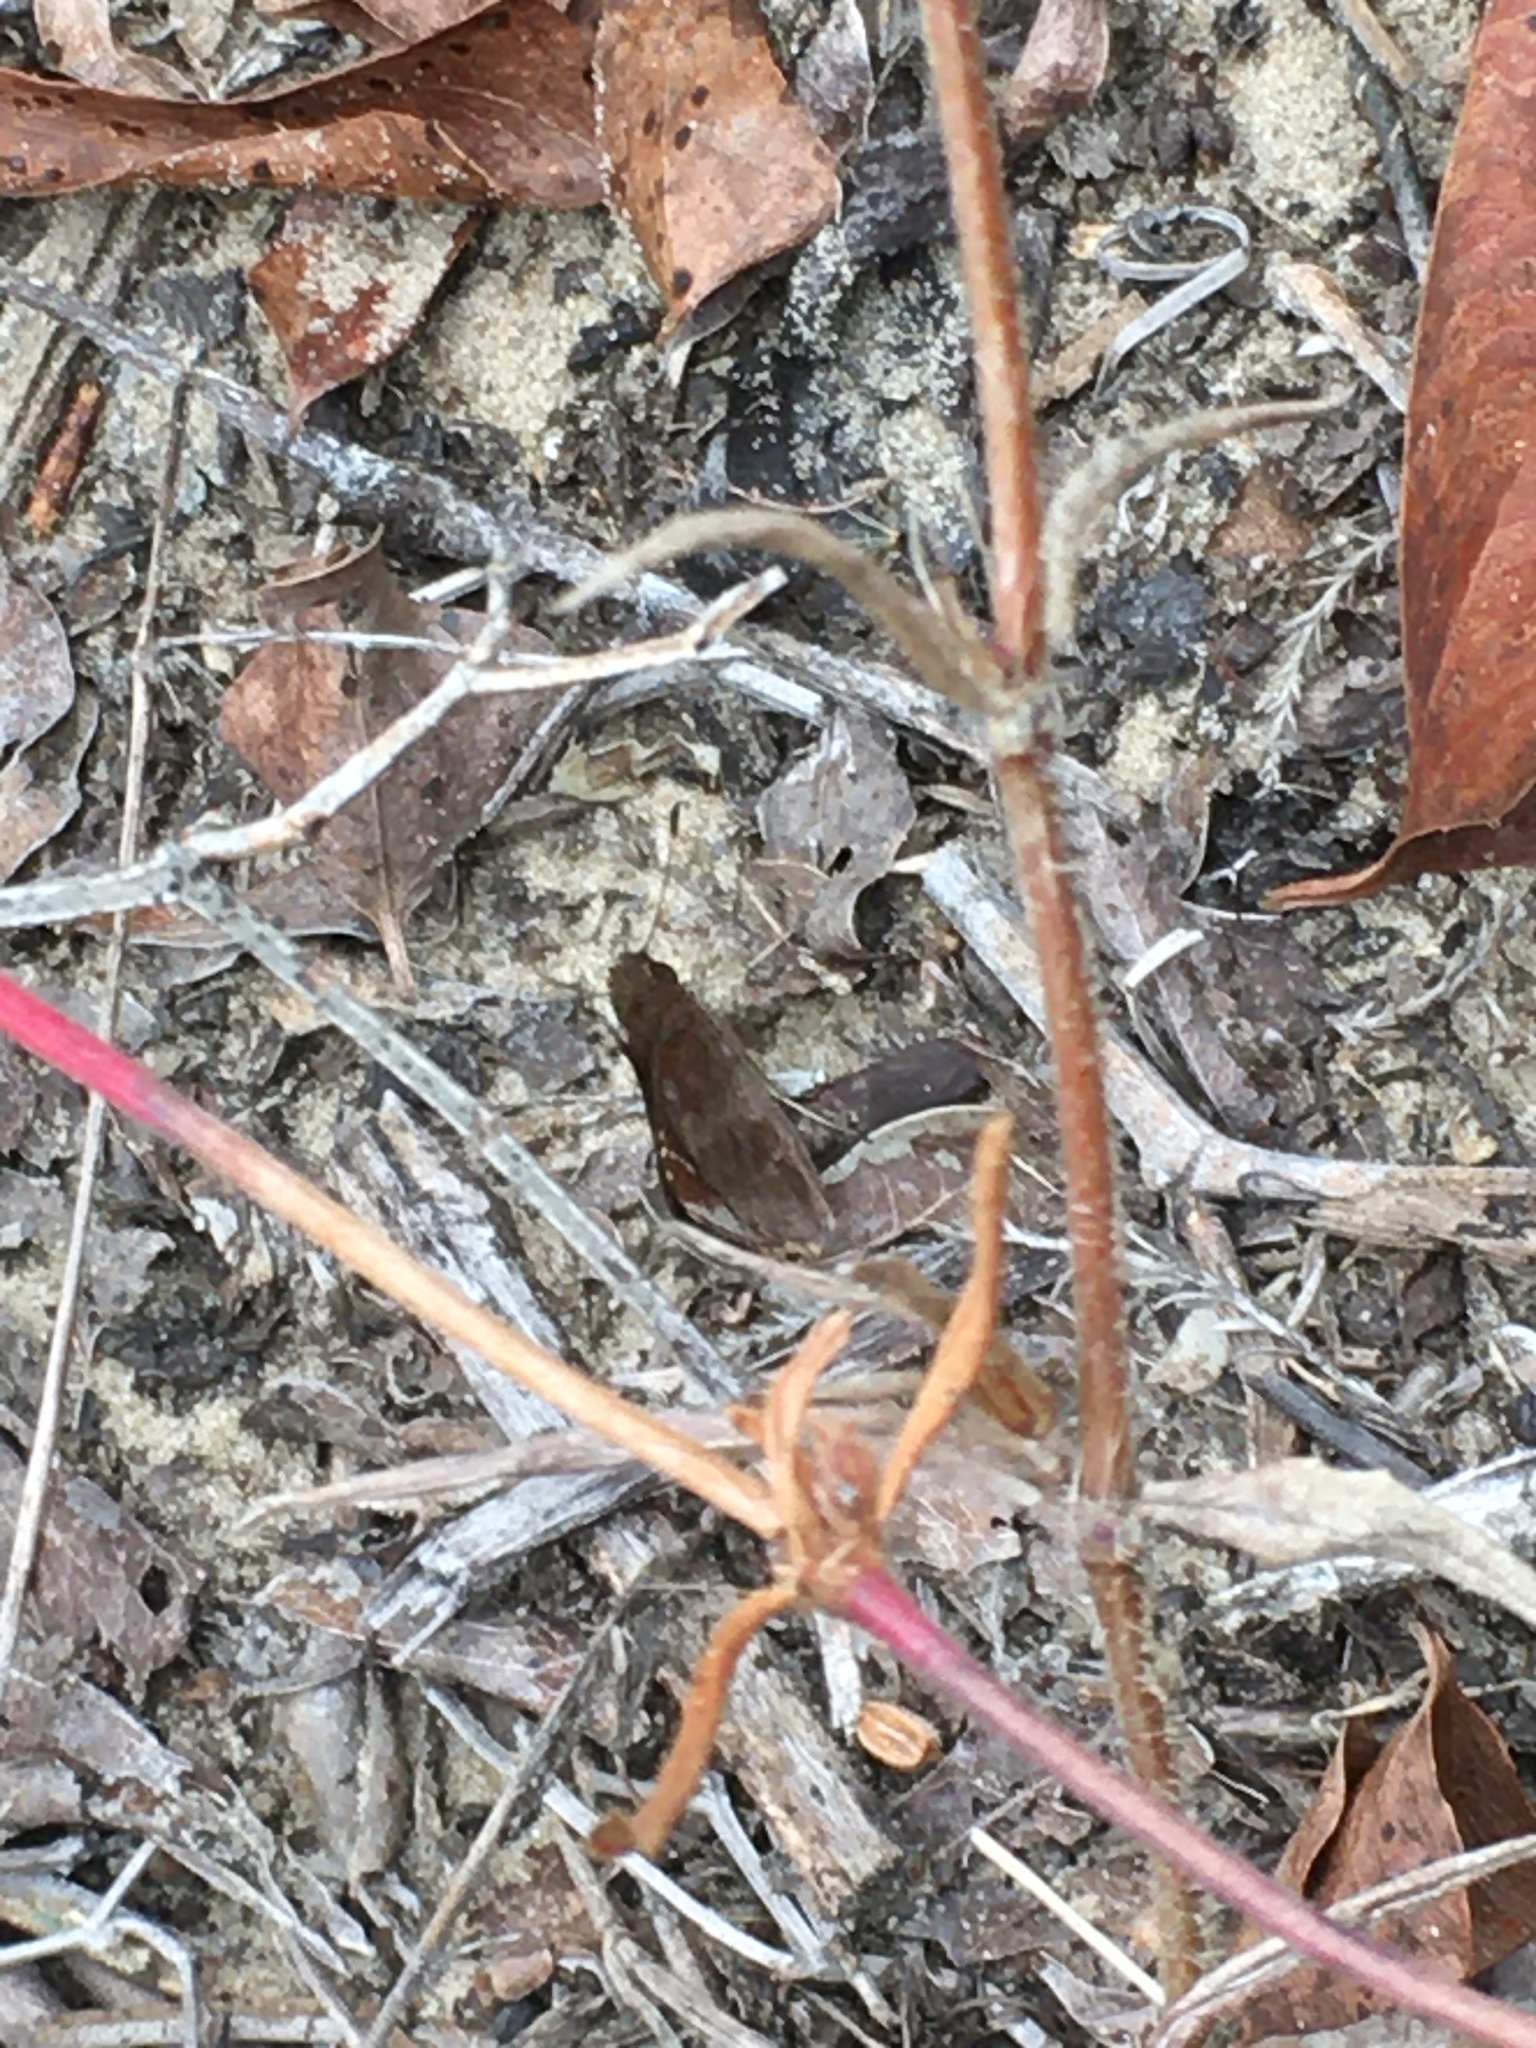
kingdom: Animalia
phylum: Arthropoda
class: Insecta
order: Lepidoptera
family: Hesperiidae
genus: Lerema
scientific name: Lerema accius
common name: Clouded skipper
